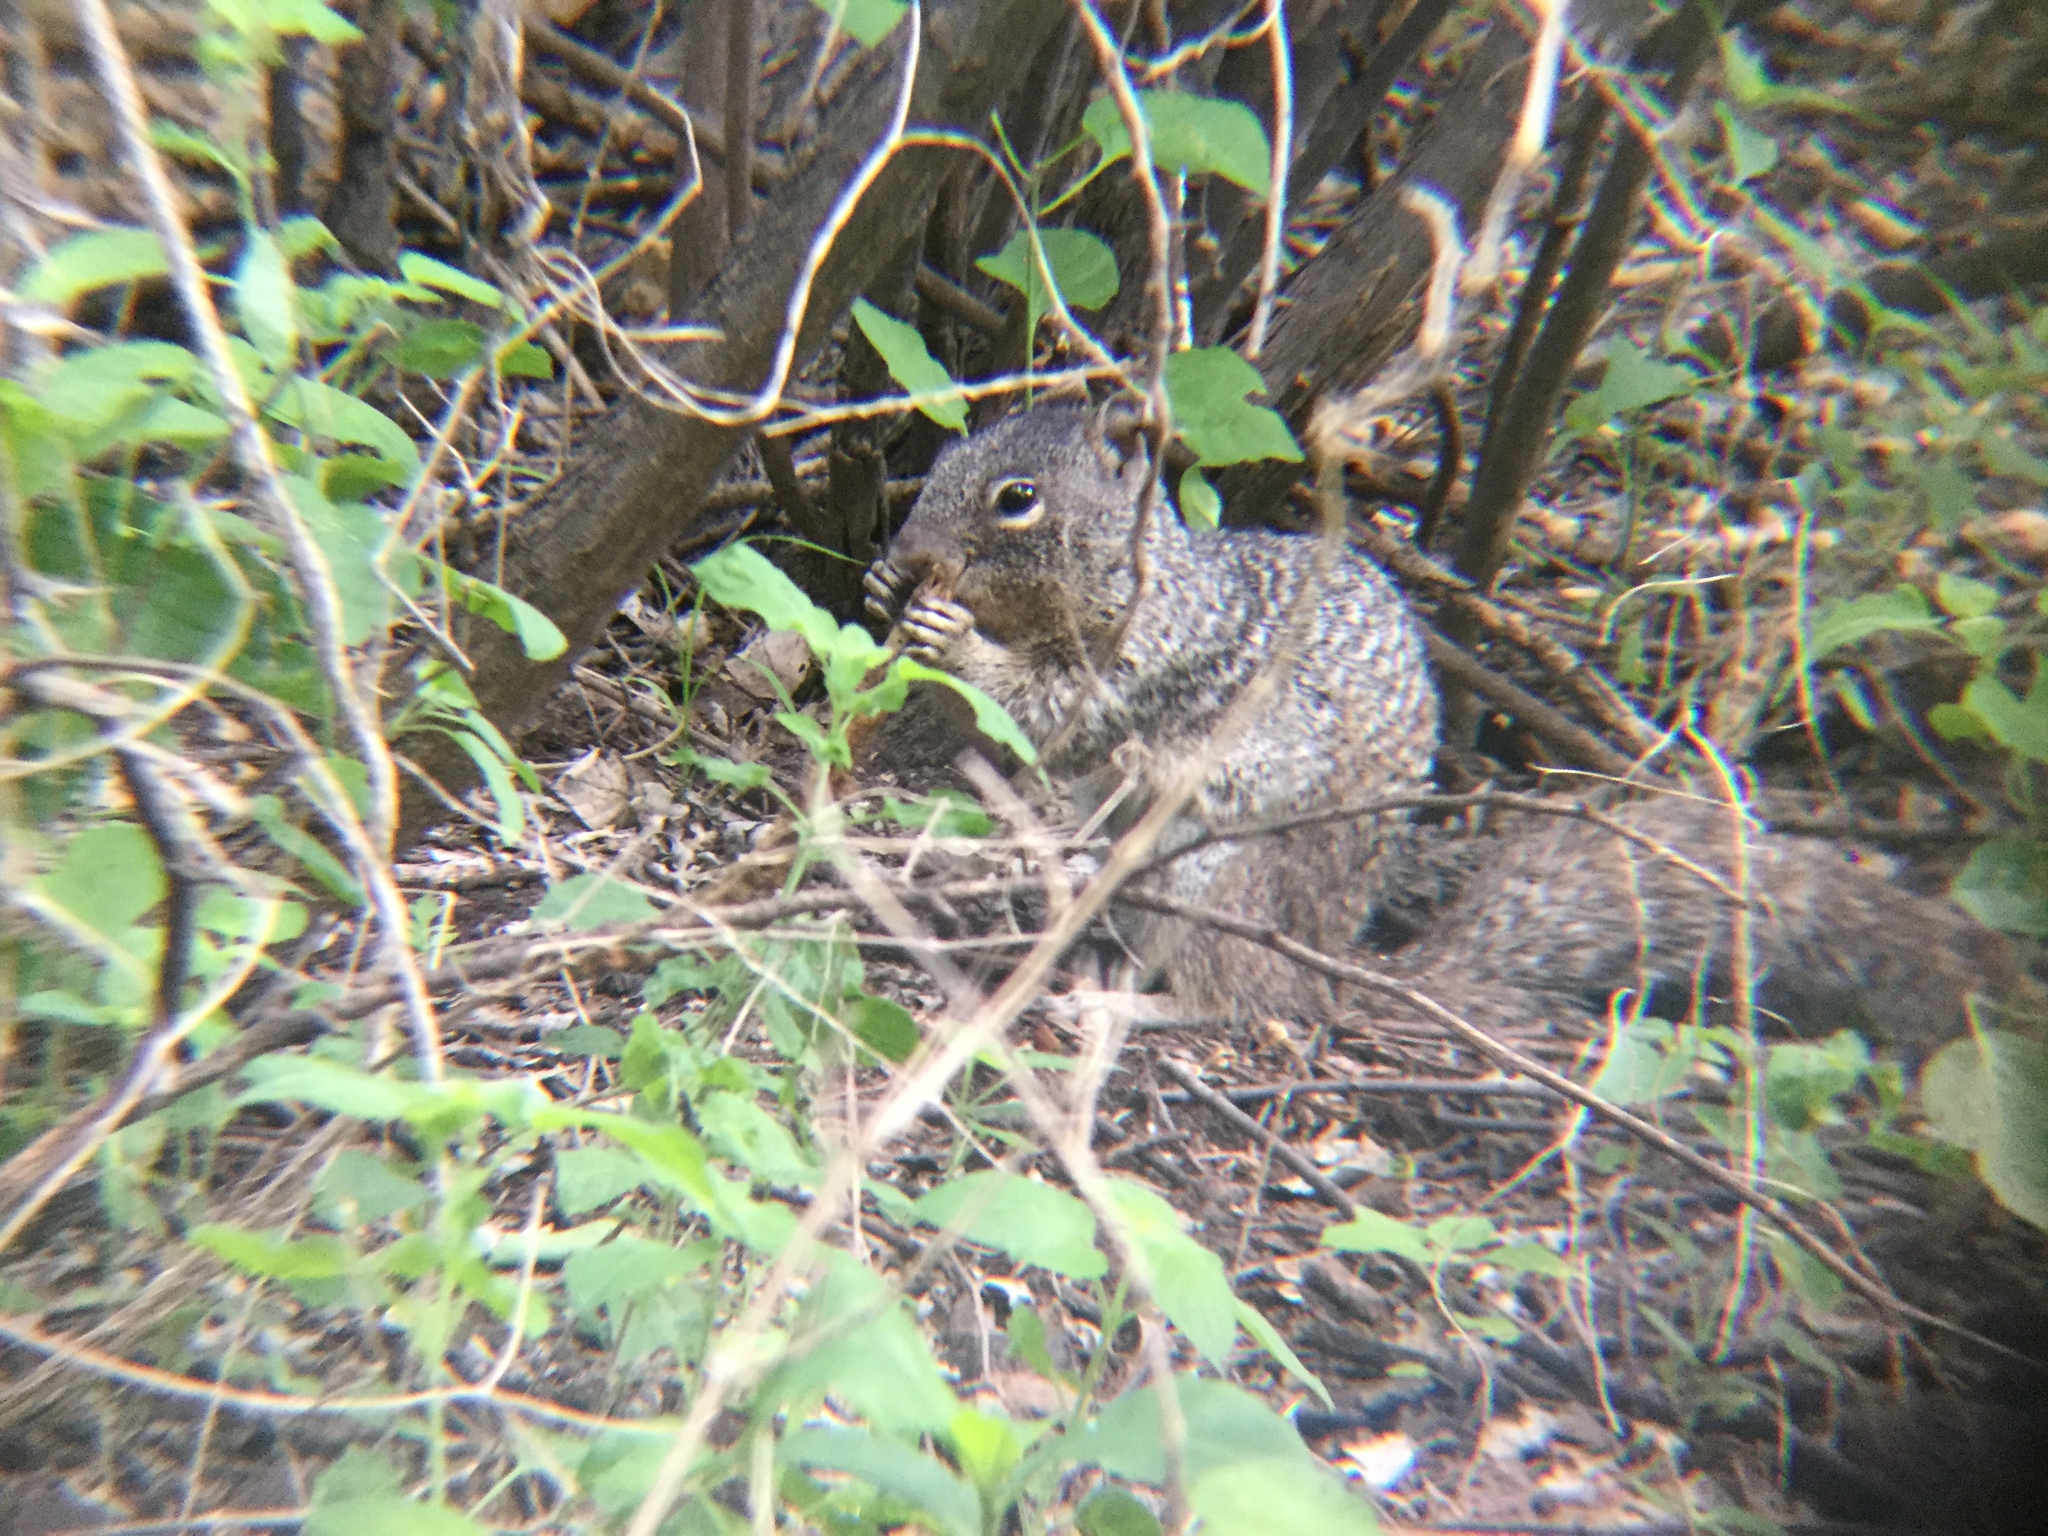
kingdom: Animalia
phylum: Chordata
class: Mammalia
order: Rodentia
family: Sciuridae
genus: Otospermophilus
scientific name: Otospermophilus variegatus
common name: Rock squirrel
